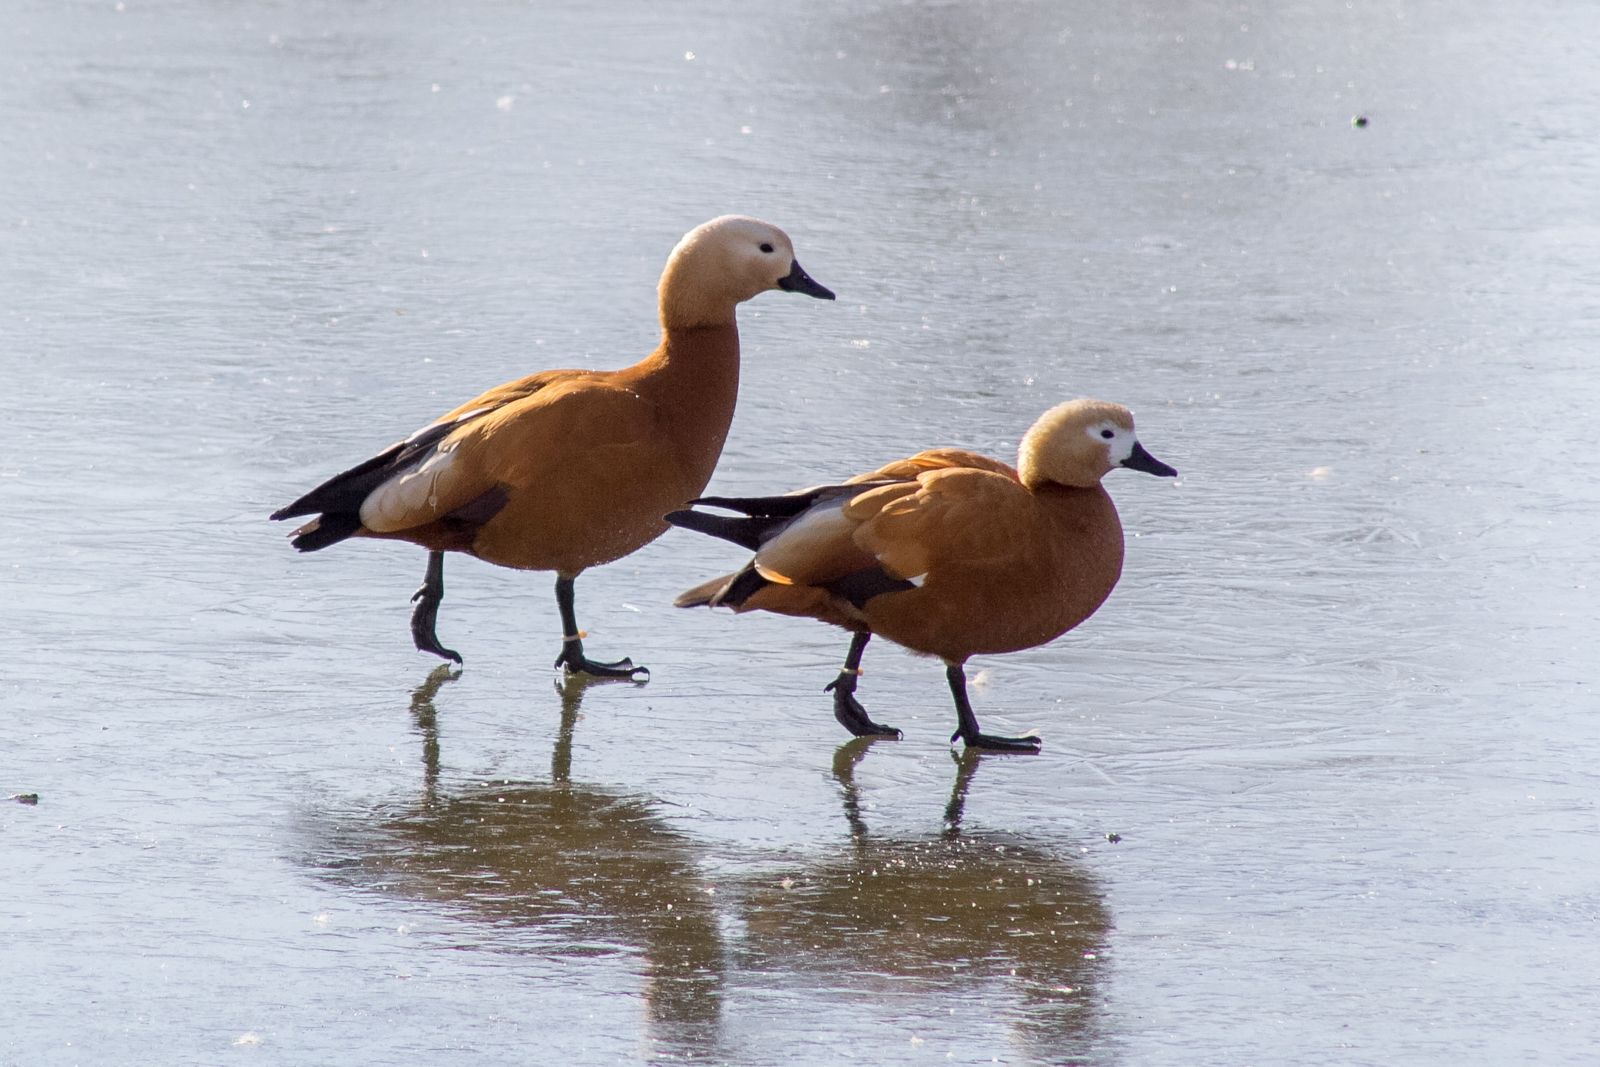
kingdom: Animalia
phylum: Chordata
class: Aves
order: Anseriformes
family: Anatidae
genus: Tadorna
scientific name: Tadorna ferruginea
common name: Ruddy shelduck
